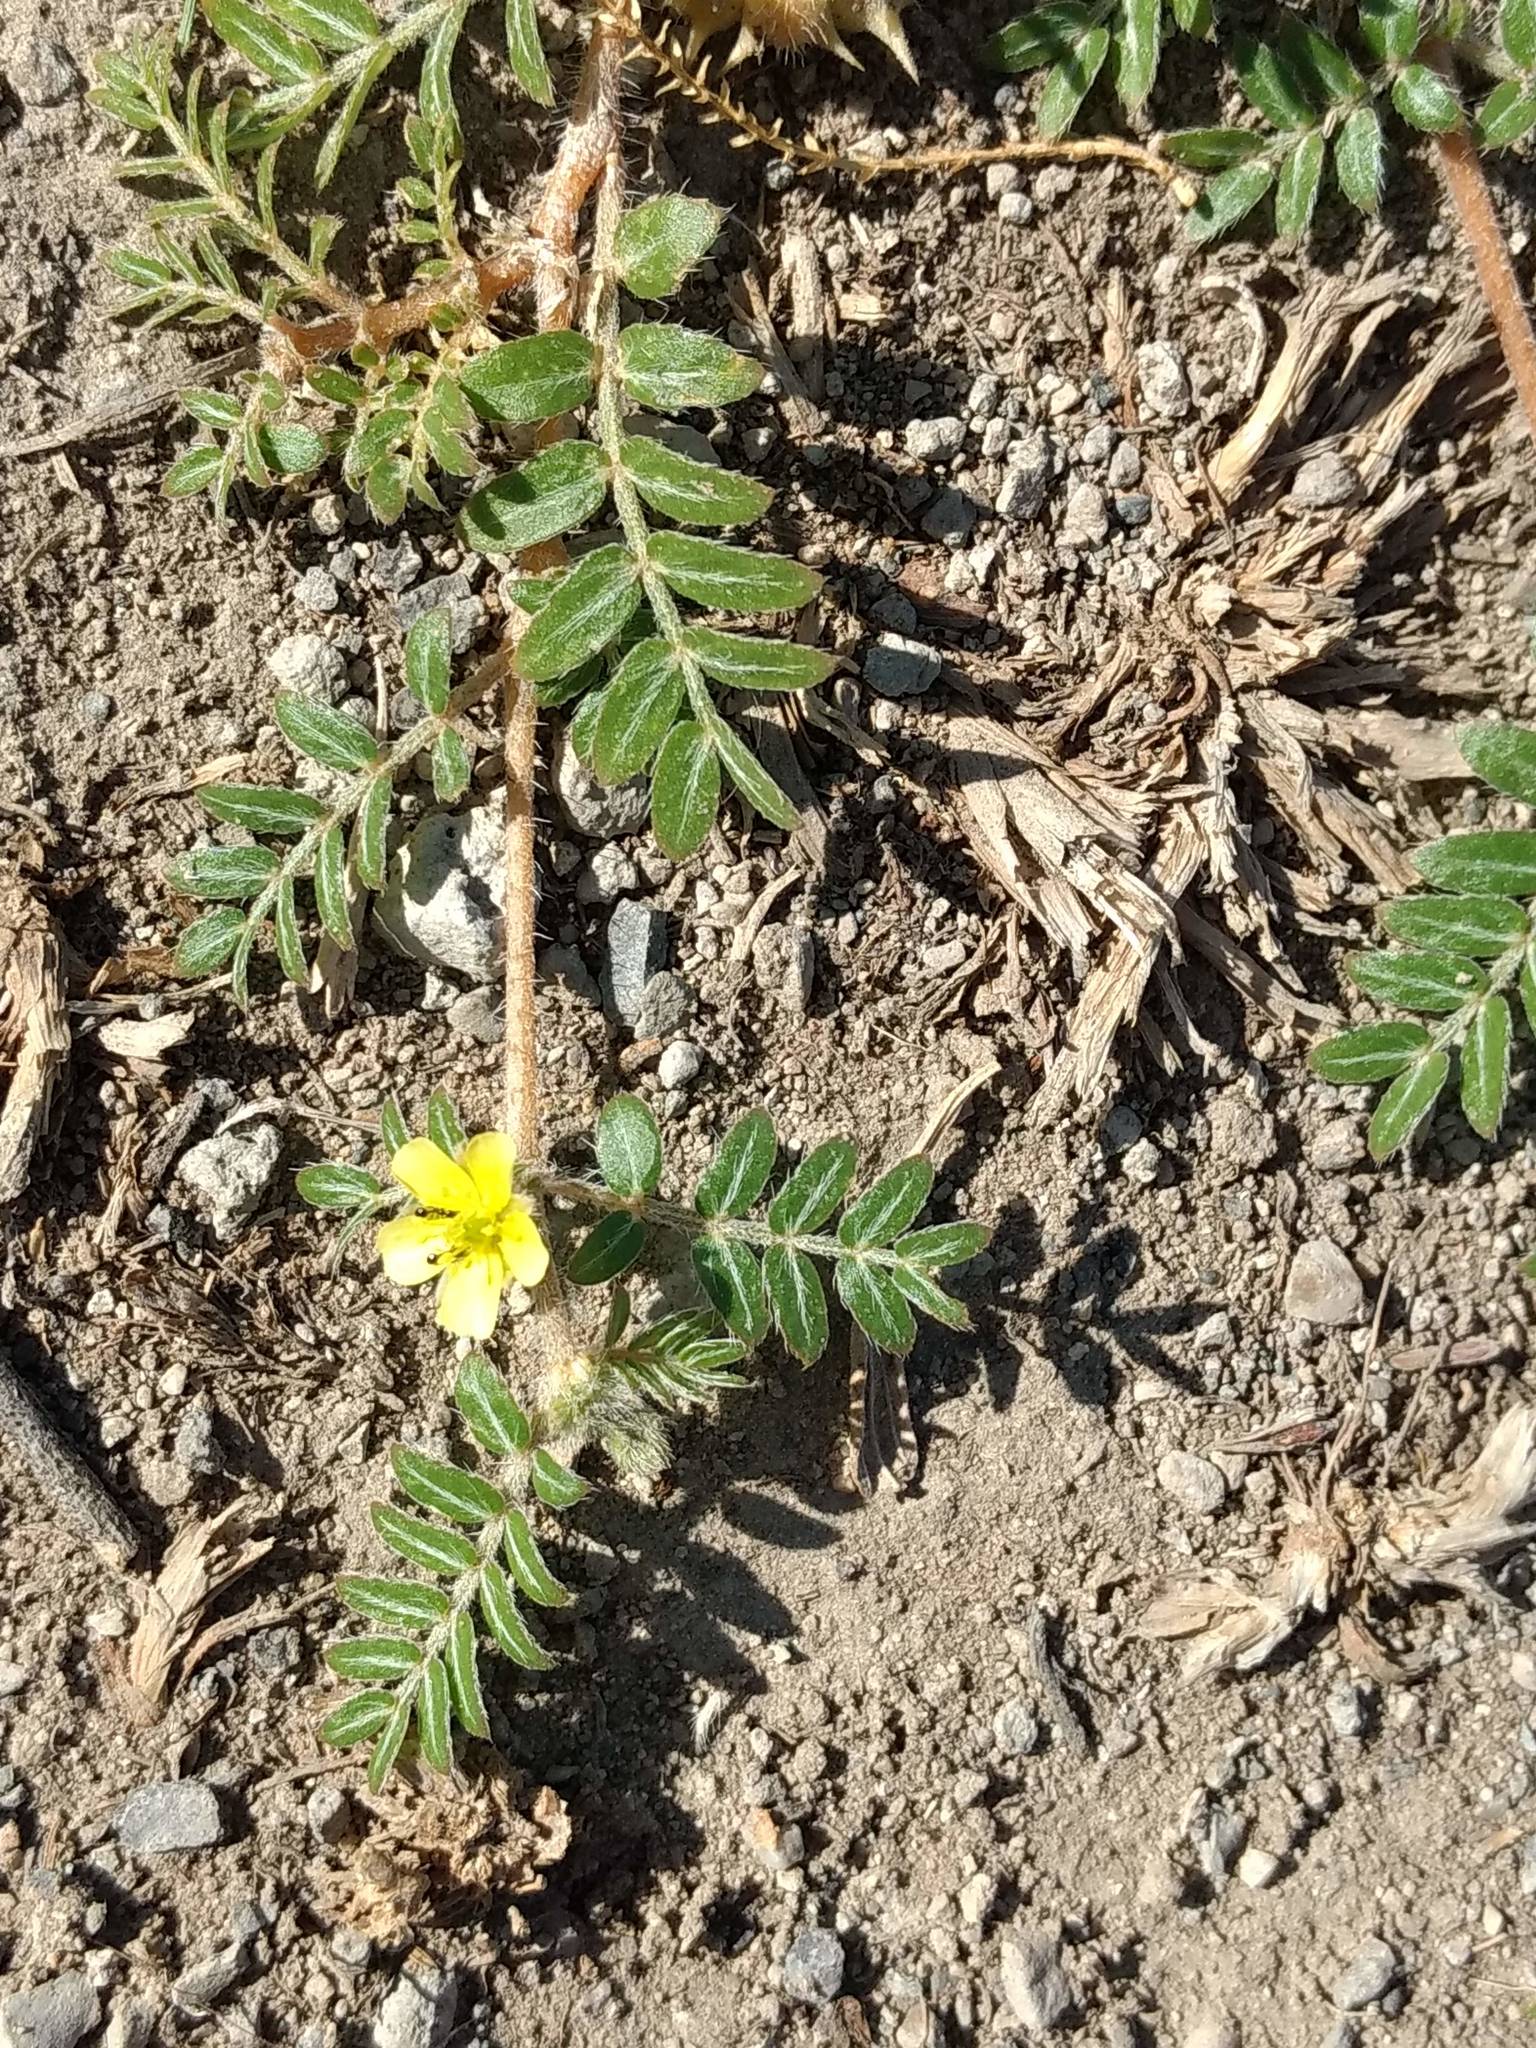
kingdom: Plantae
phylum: Tracheophyta
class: Magnoliopsida
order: Zygophyllales
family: Zygophyllaceae
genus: Tribulus
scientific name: Tribulus terrestris
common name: Puncturevine
